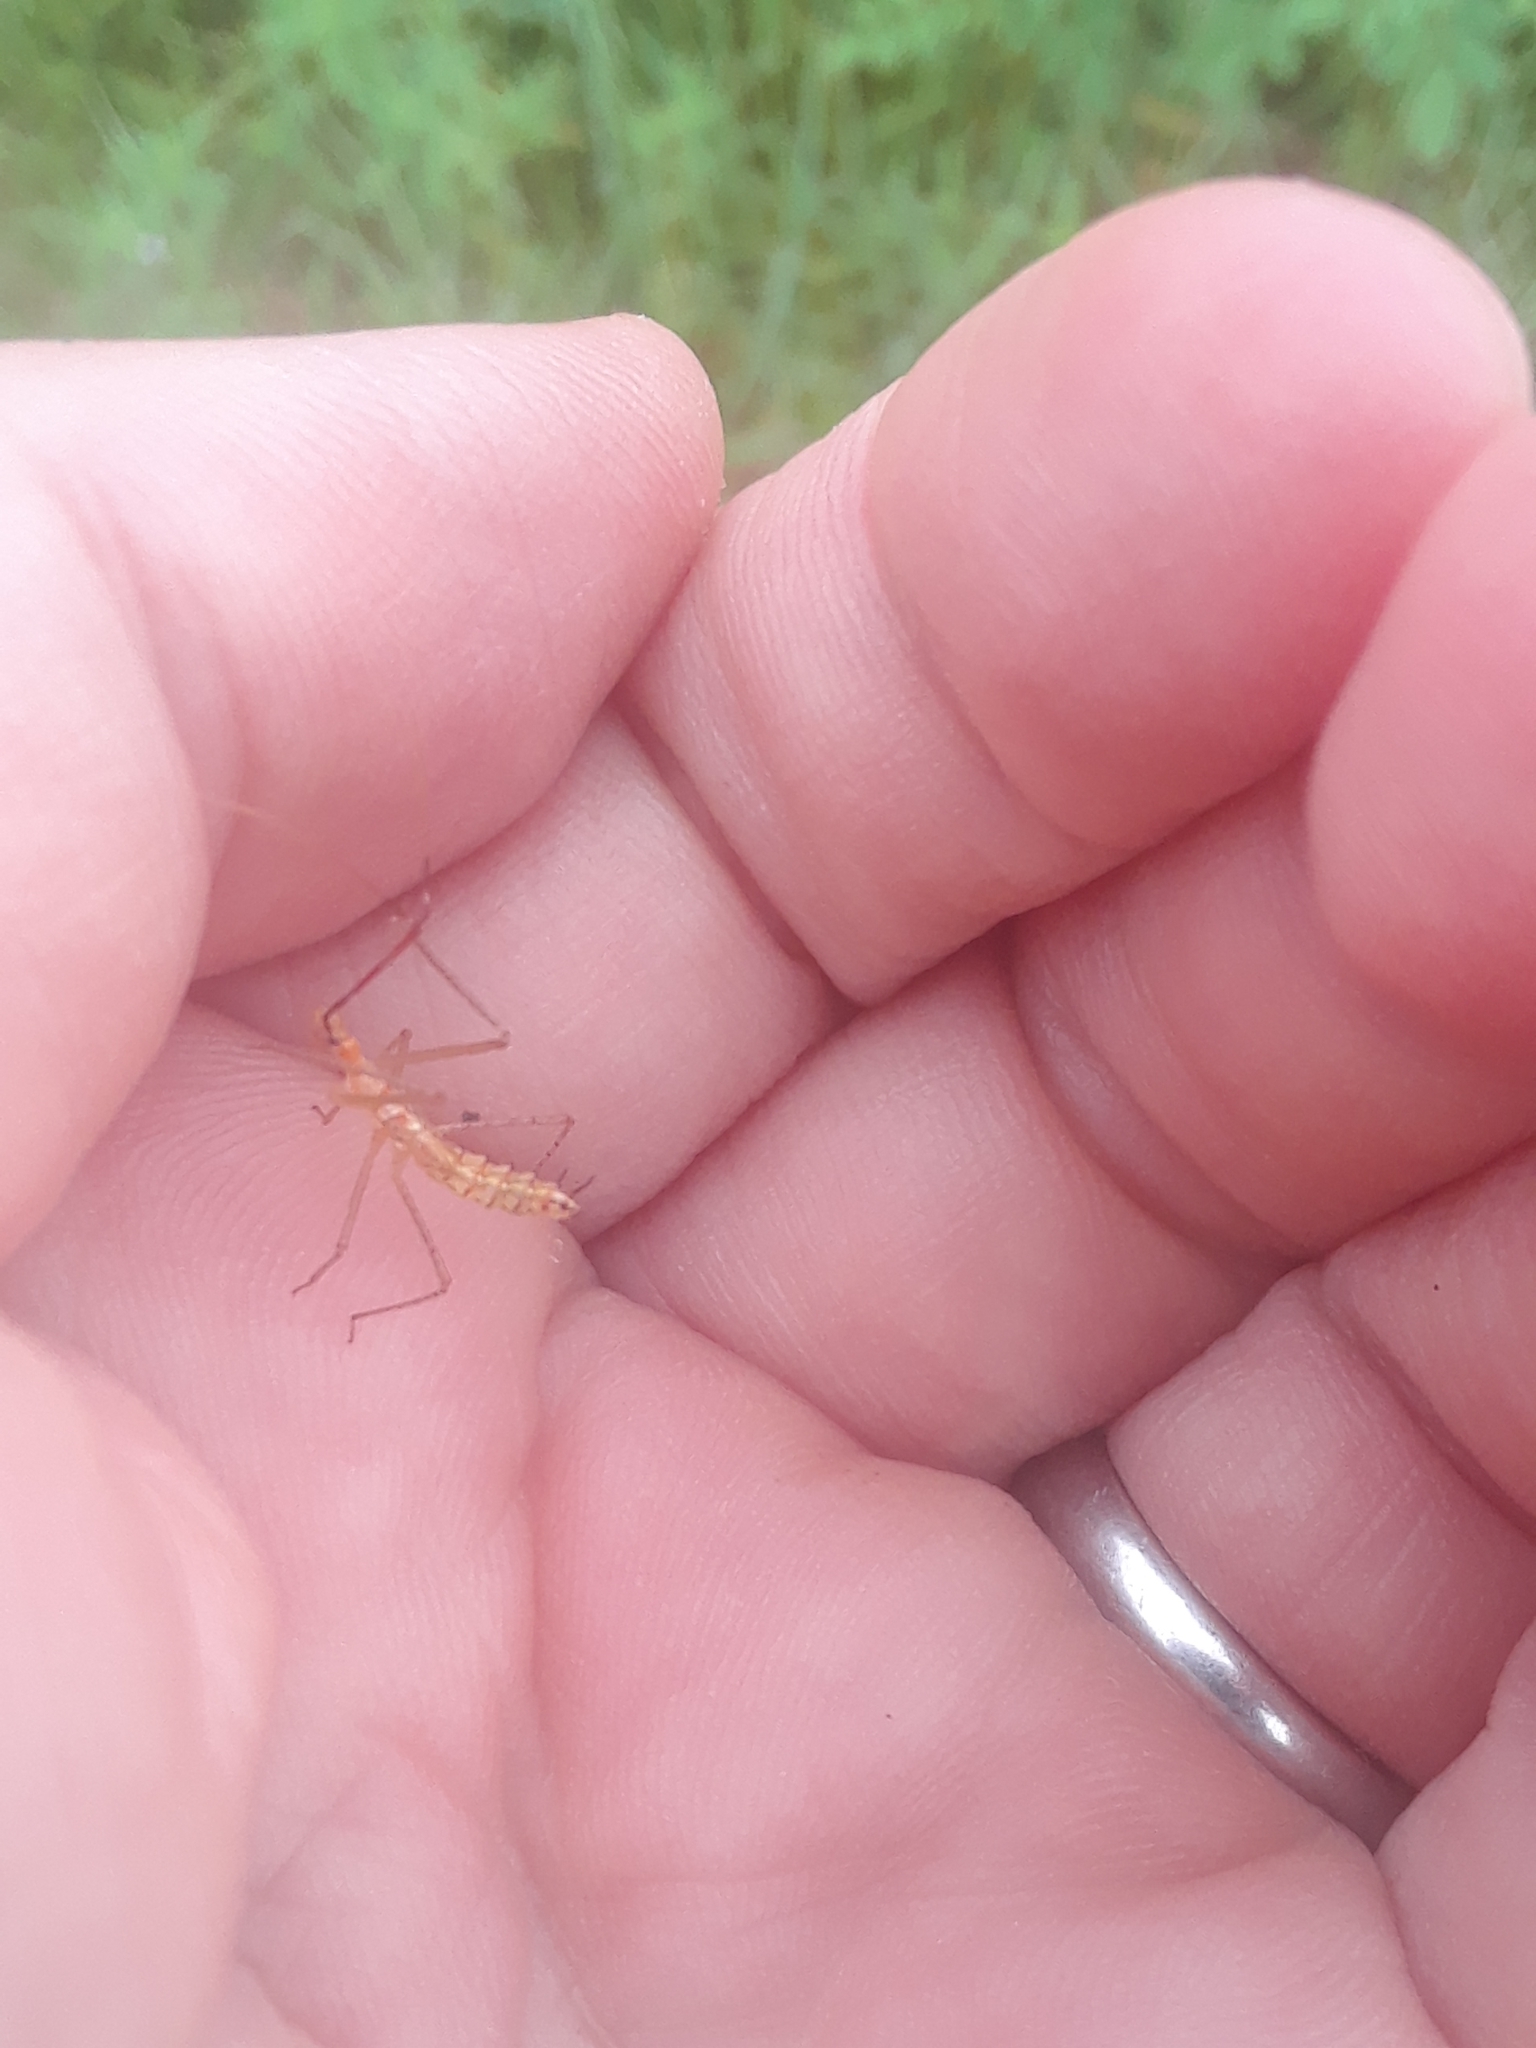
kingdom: Animalia
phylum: Arthropoda
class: Insecta
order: Hemiptera
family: Reduviidae
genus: Zelus
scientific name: Zelus renardii
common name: Assassin bug
